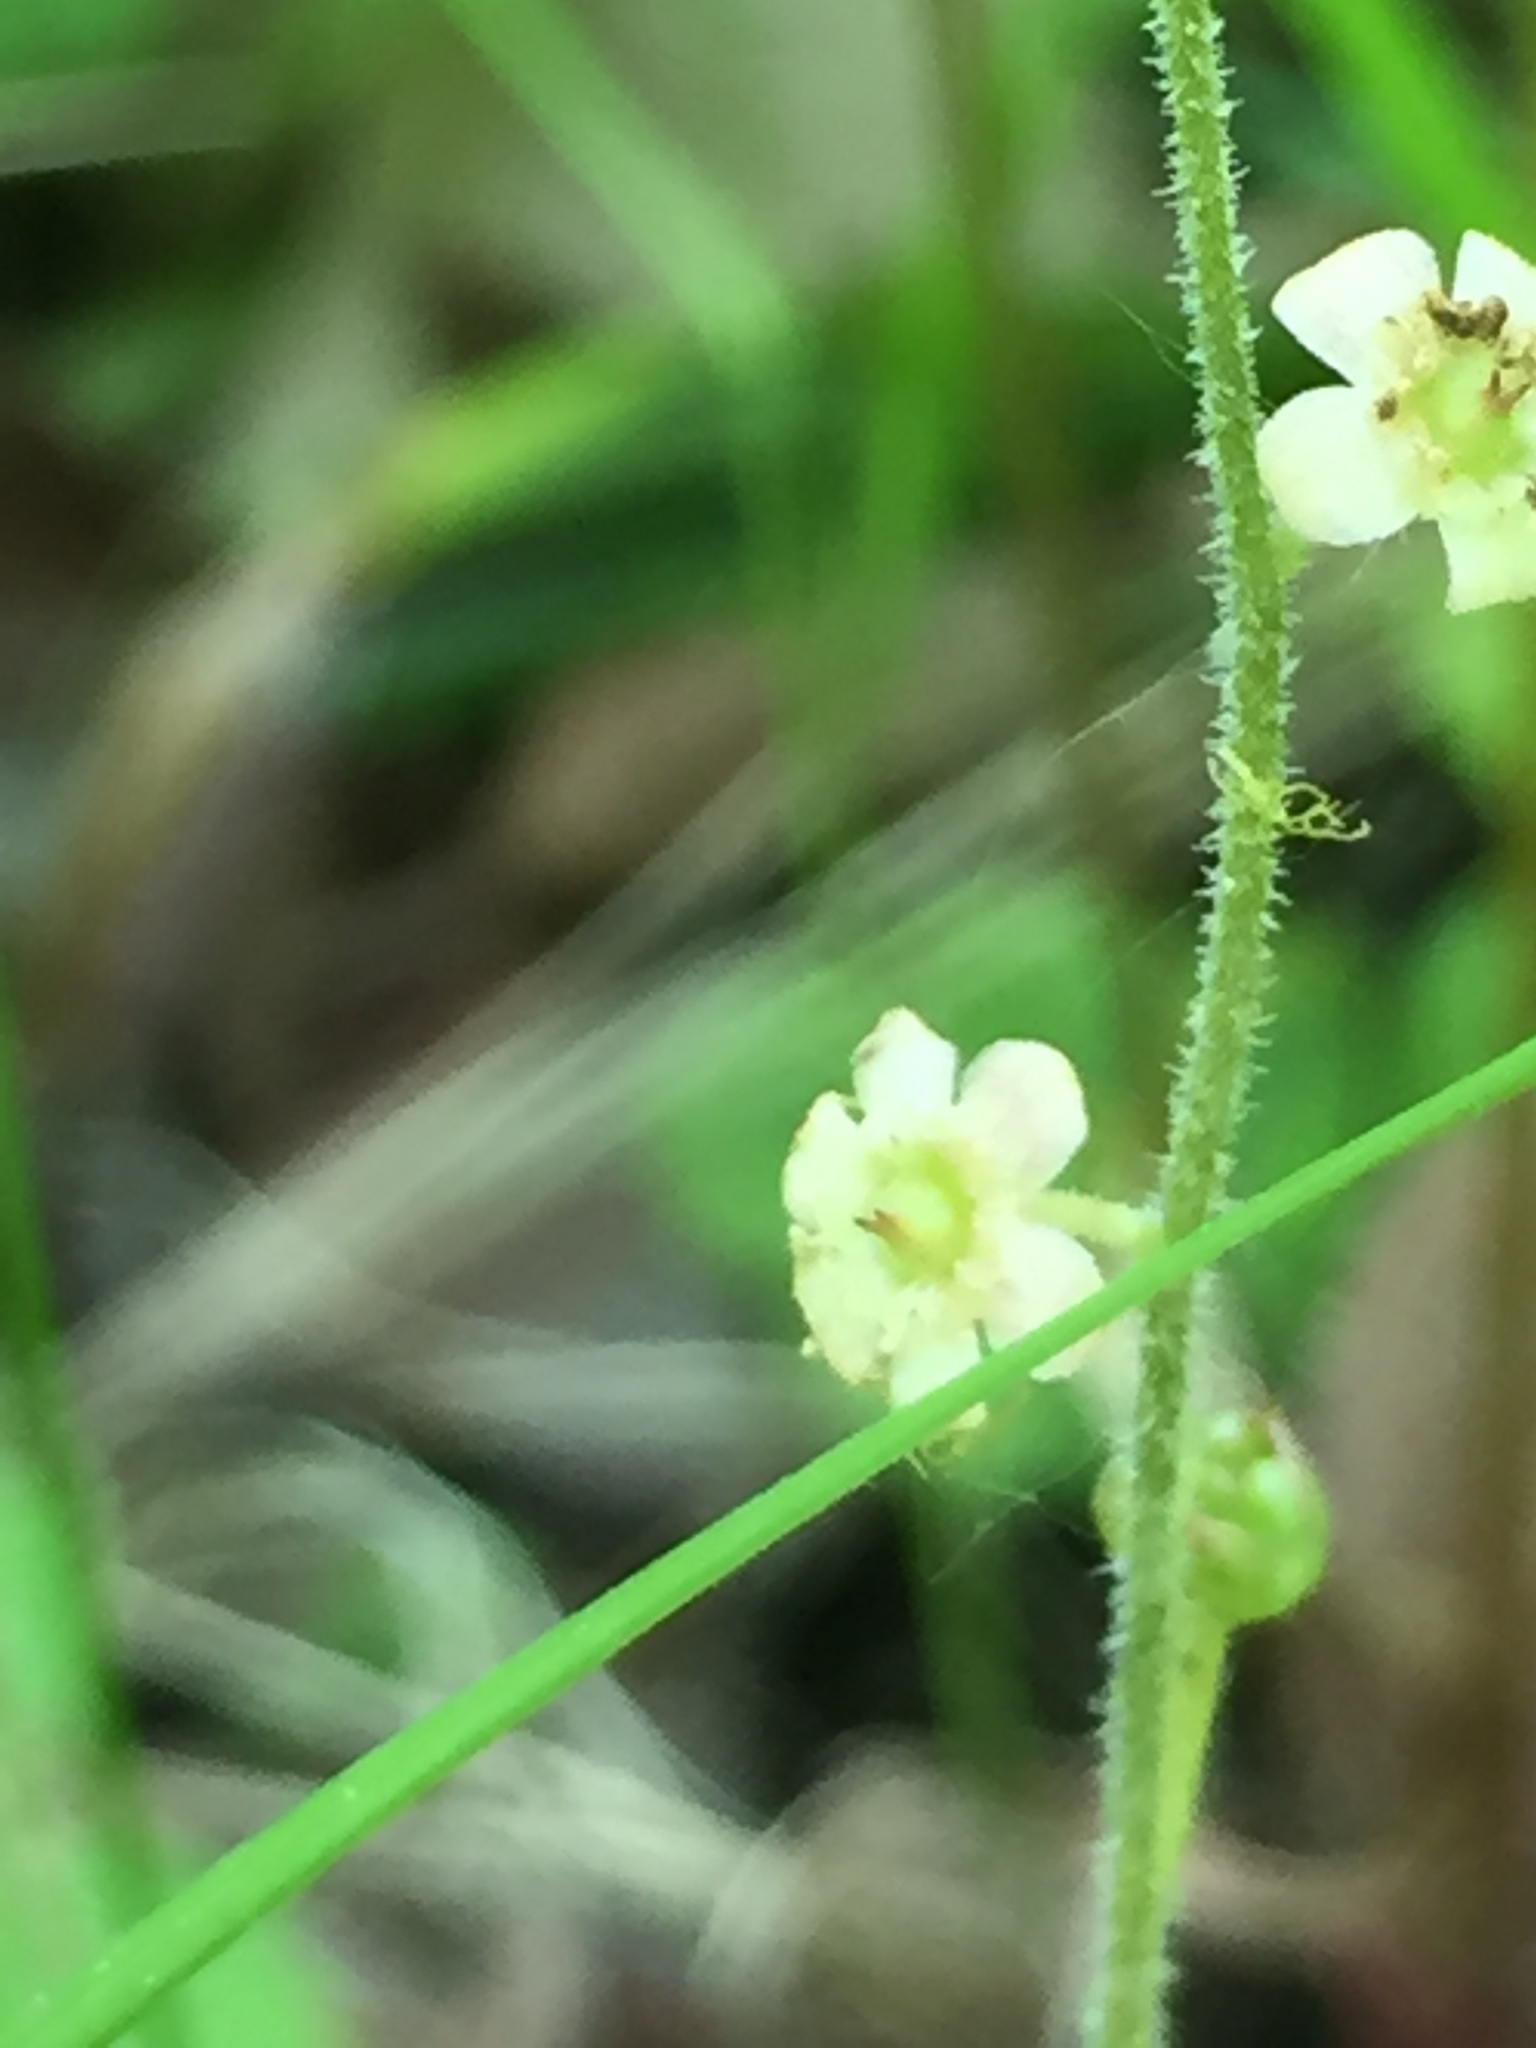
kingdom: Plantae
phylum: Tracheophyta
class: Magnoliopsida
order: Saxifragales
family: Saxifragaceae
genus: Mitella
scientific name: Mitella nuda
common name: Bare-stemmed bishop's-cap
